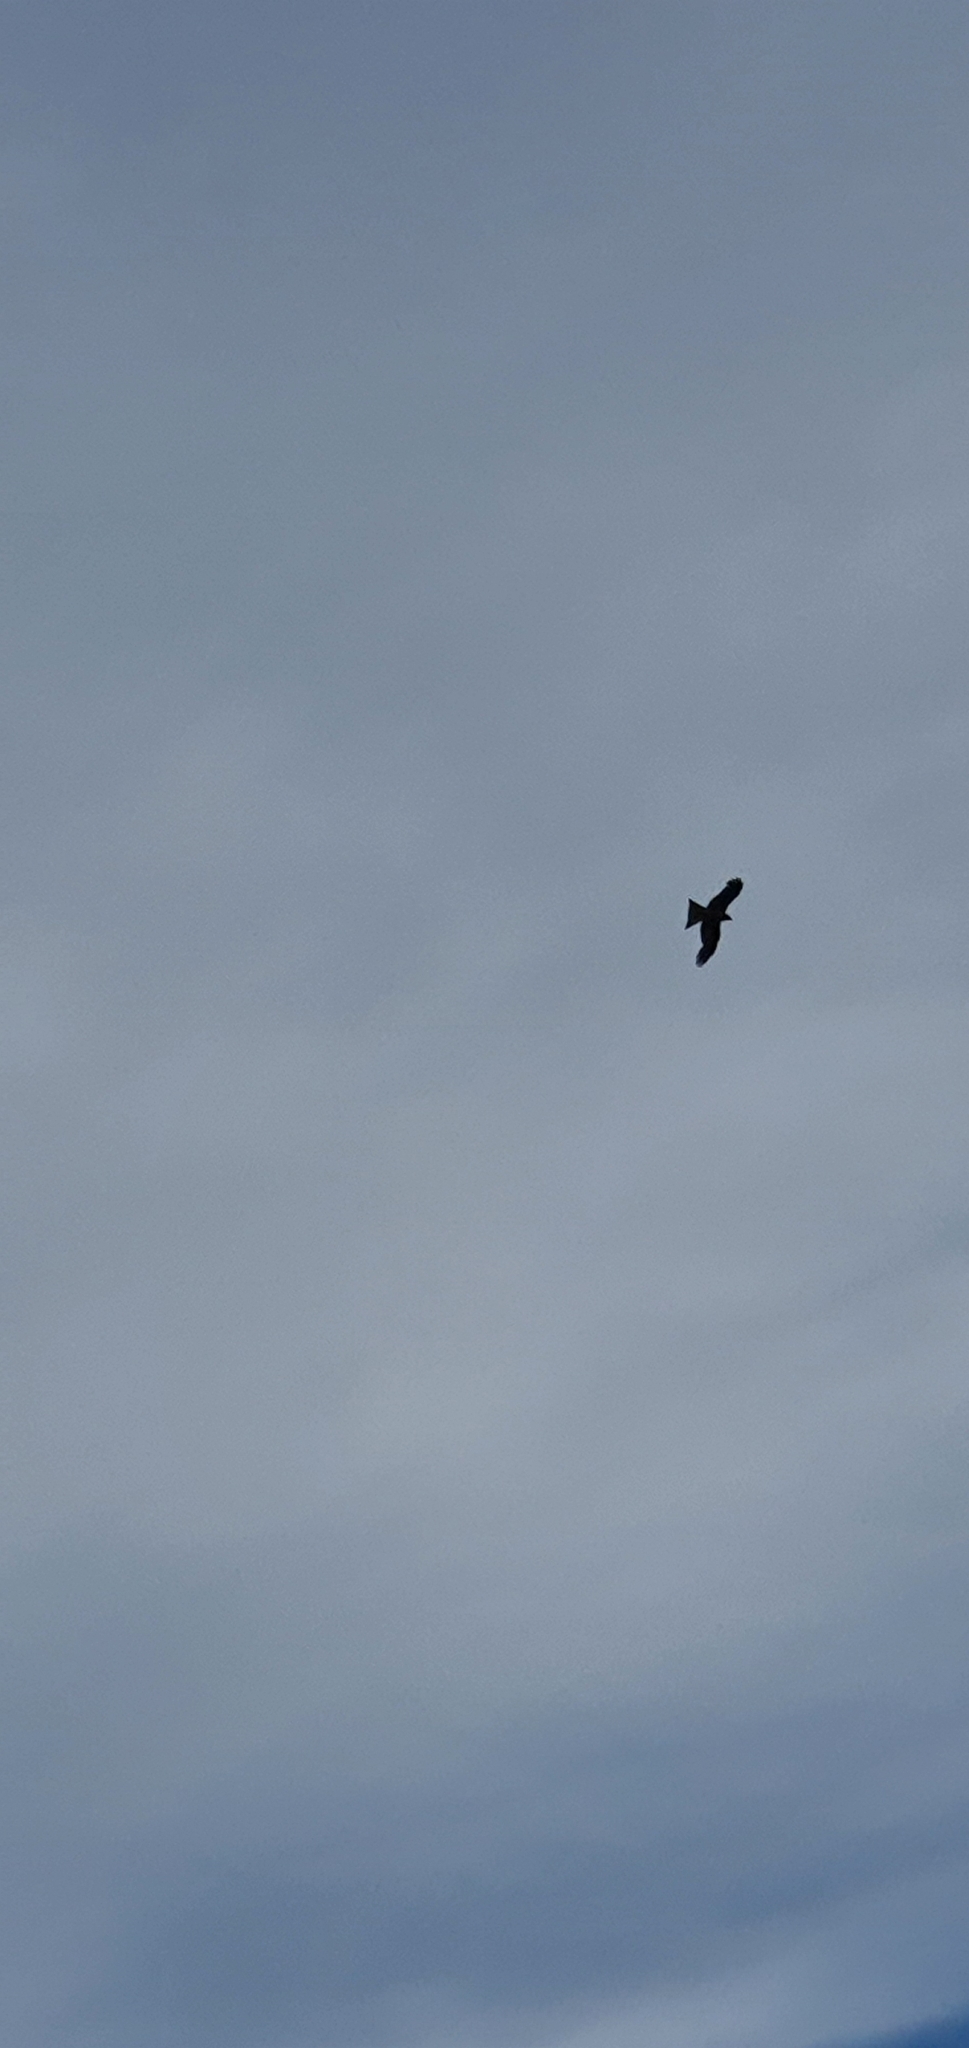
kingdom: Animalia
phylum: Chordata
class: Aves
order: Accipitriformes
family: Accipitridae
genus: Milvus
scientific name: Milvus migrans
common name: Black kite
